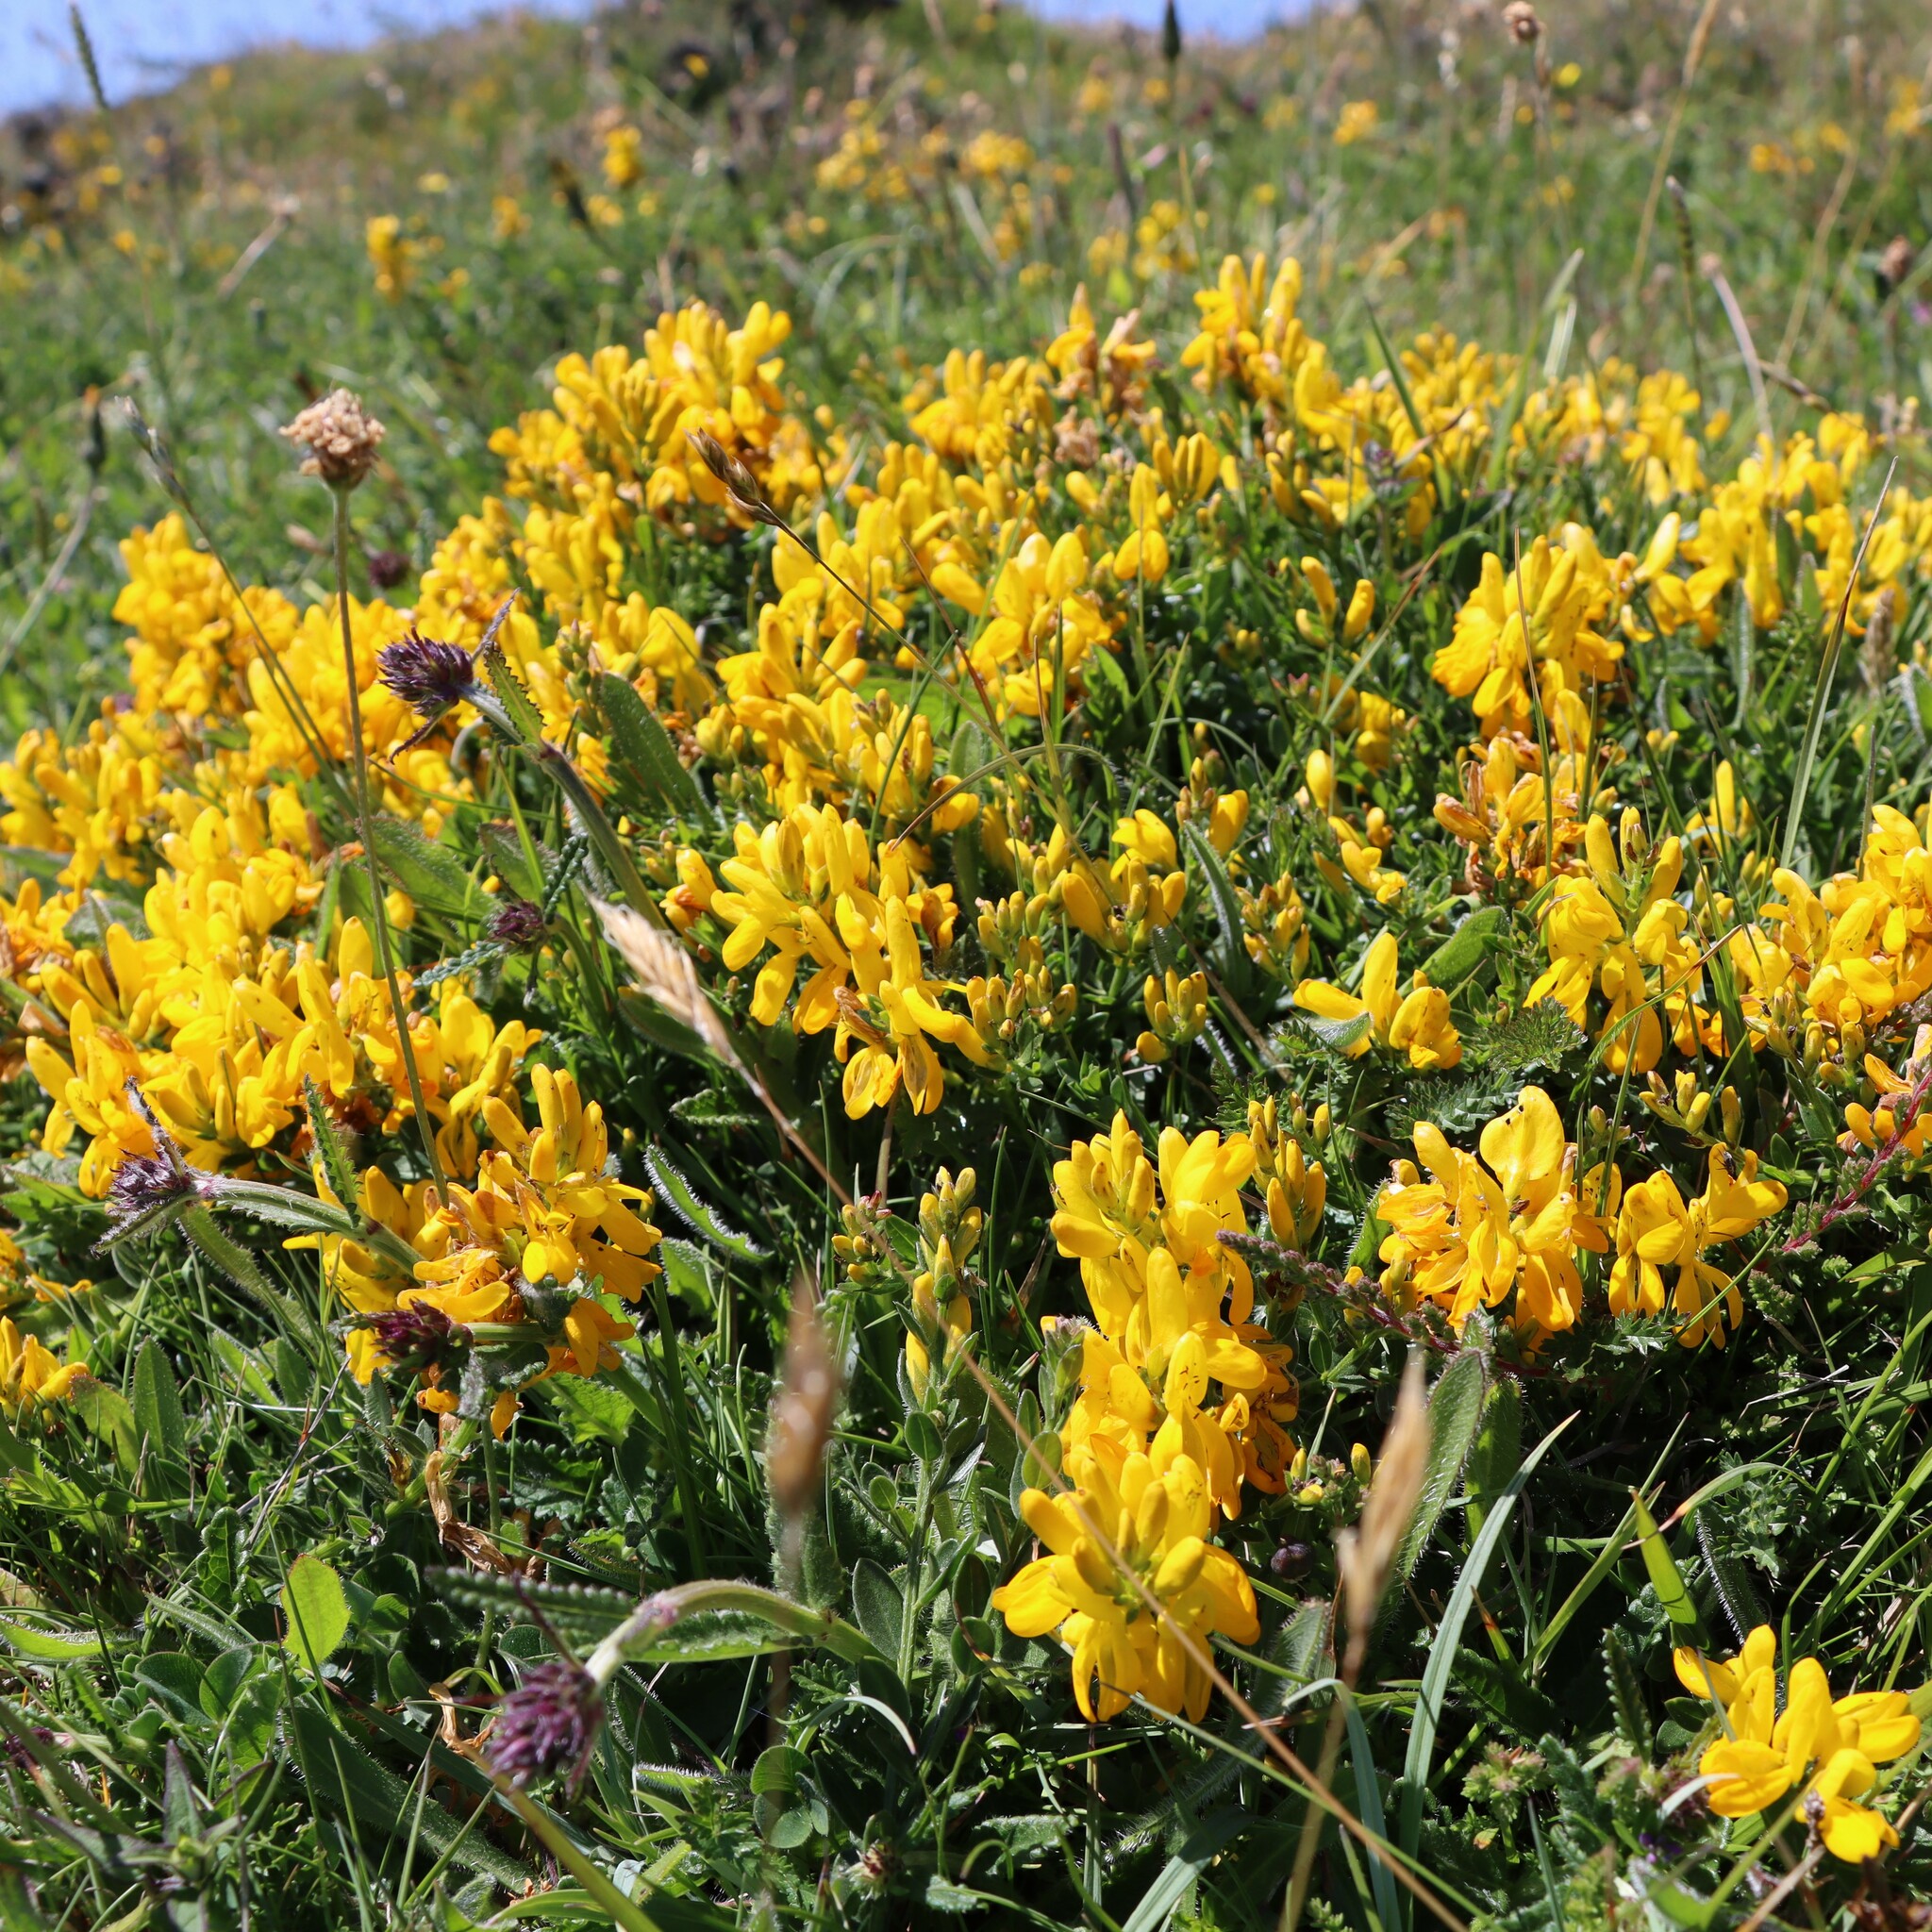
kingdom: Plantae
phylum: Tracheophyta
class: Magnoliopsida
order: Fabales
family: Fabaceae
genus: Genista
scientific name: Genista tinctoria
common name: Dyer's greenweed
